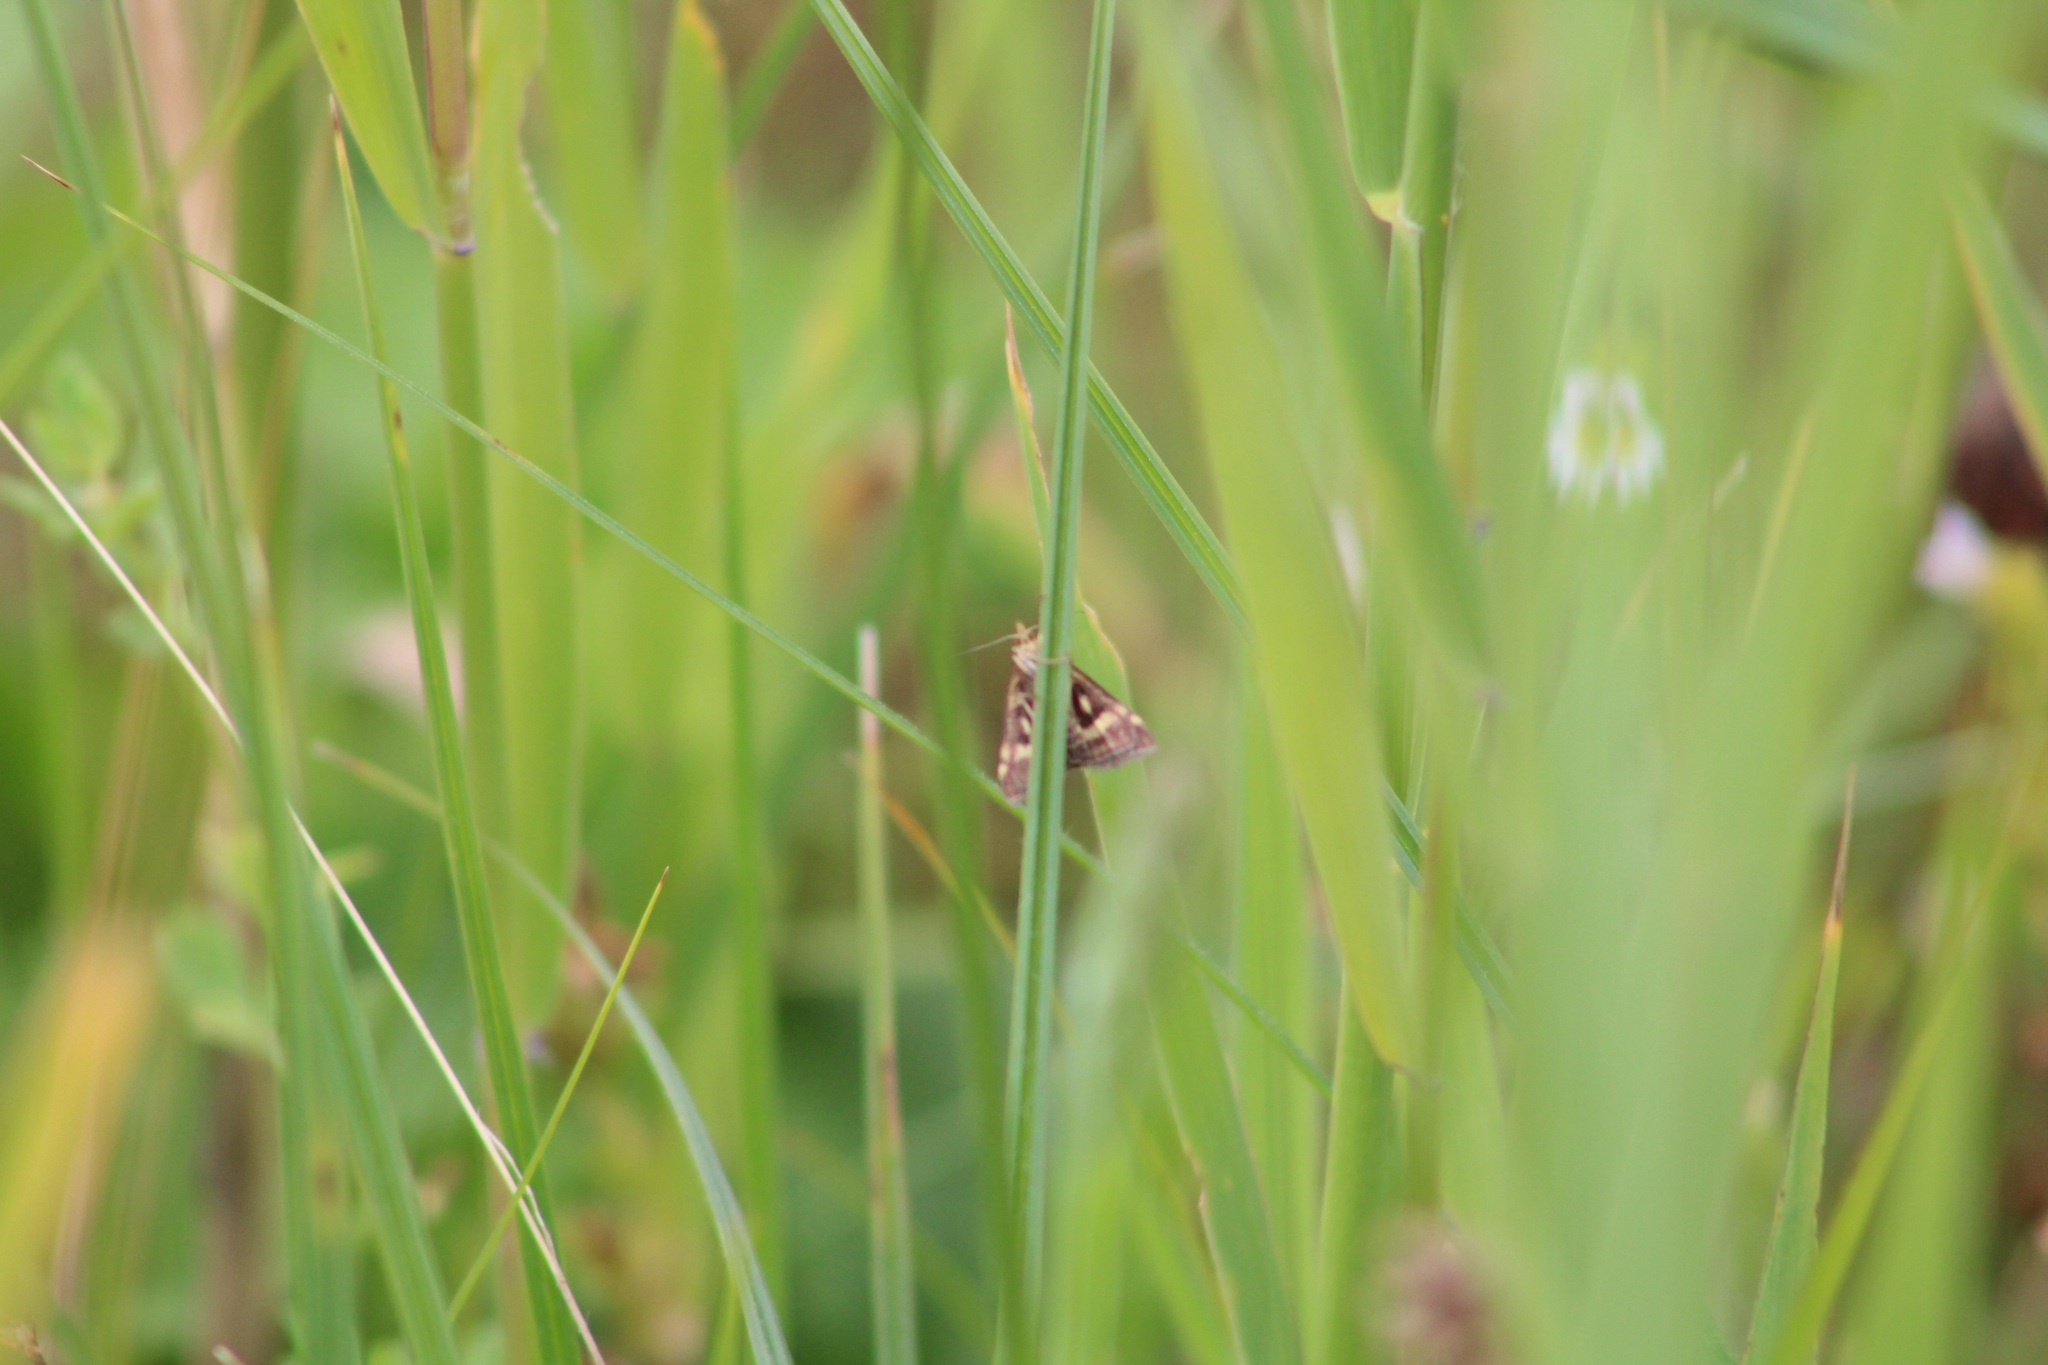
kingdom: Animalia
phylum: Arthropoda
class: Insecta
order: Lepidoptera
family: Crambidae
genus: Pyrausta
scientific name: Pyrausta aurata
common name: Small purple & gold
